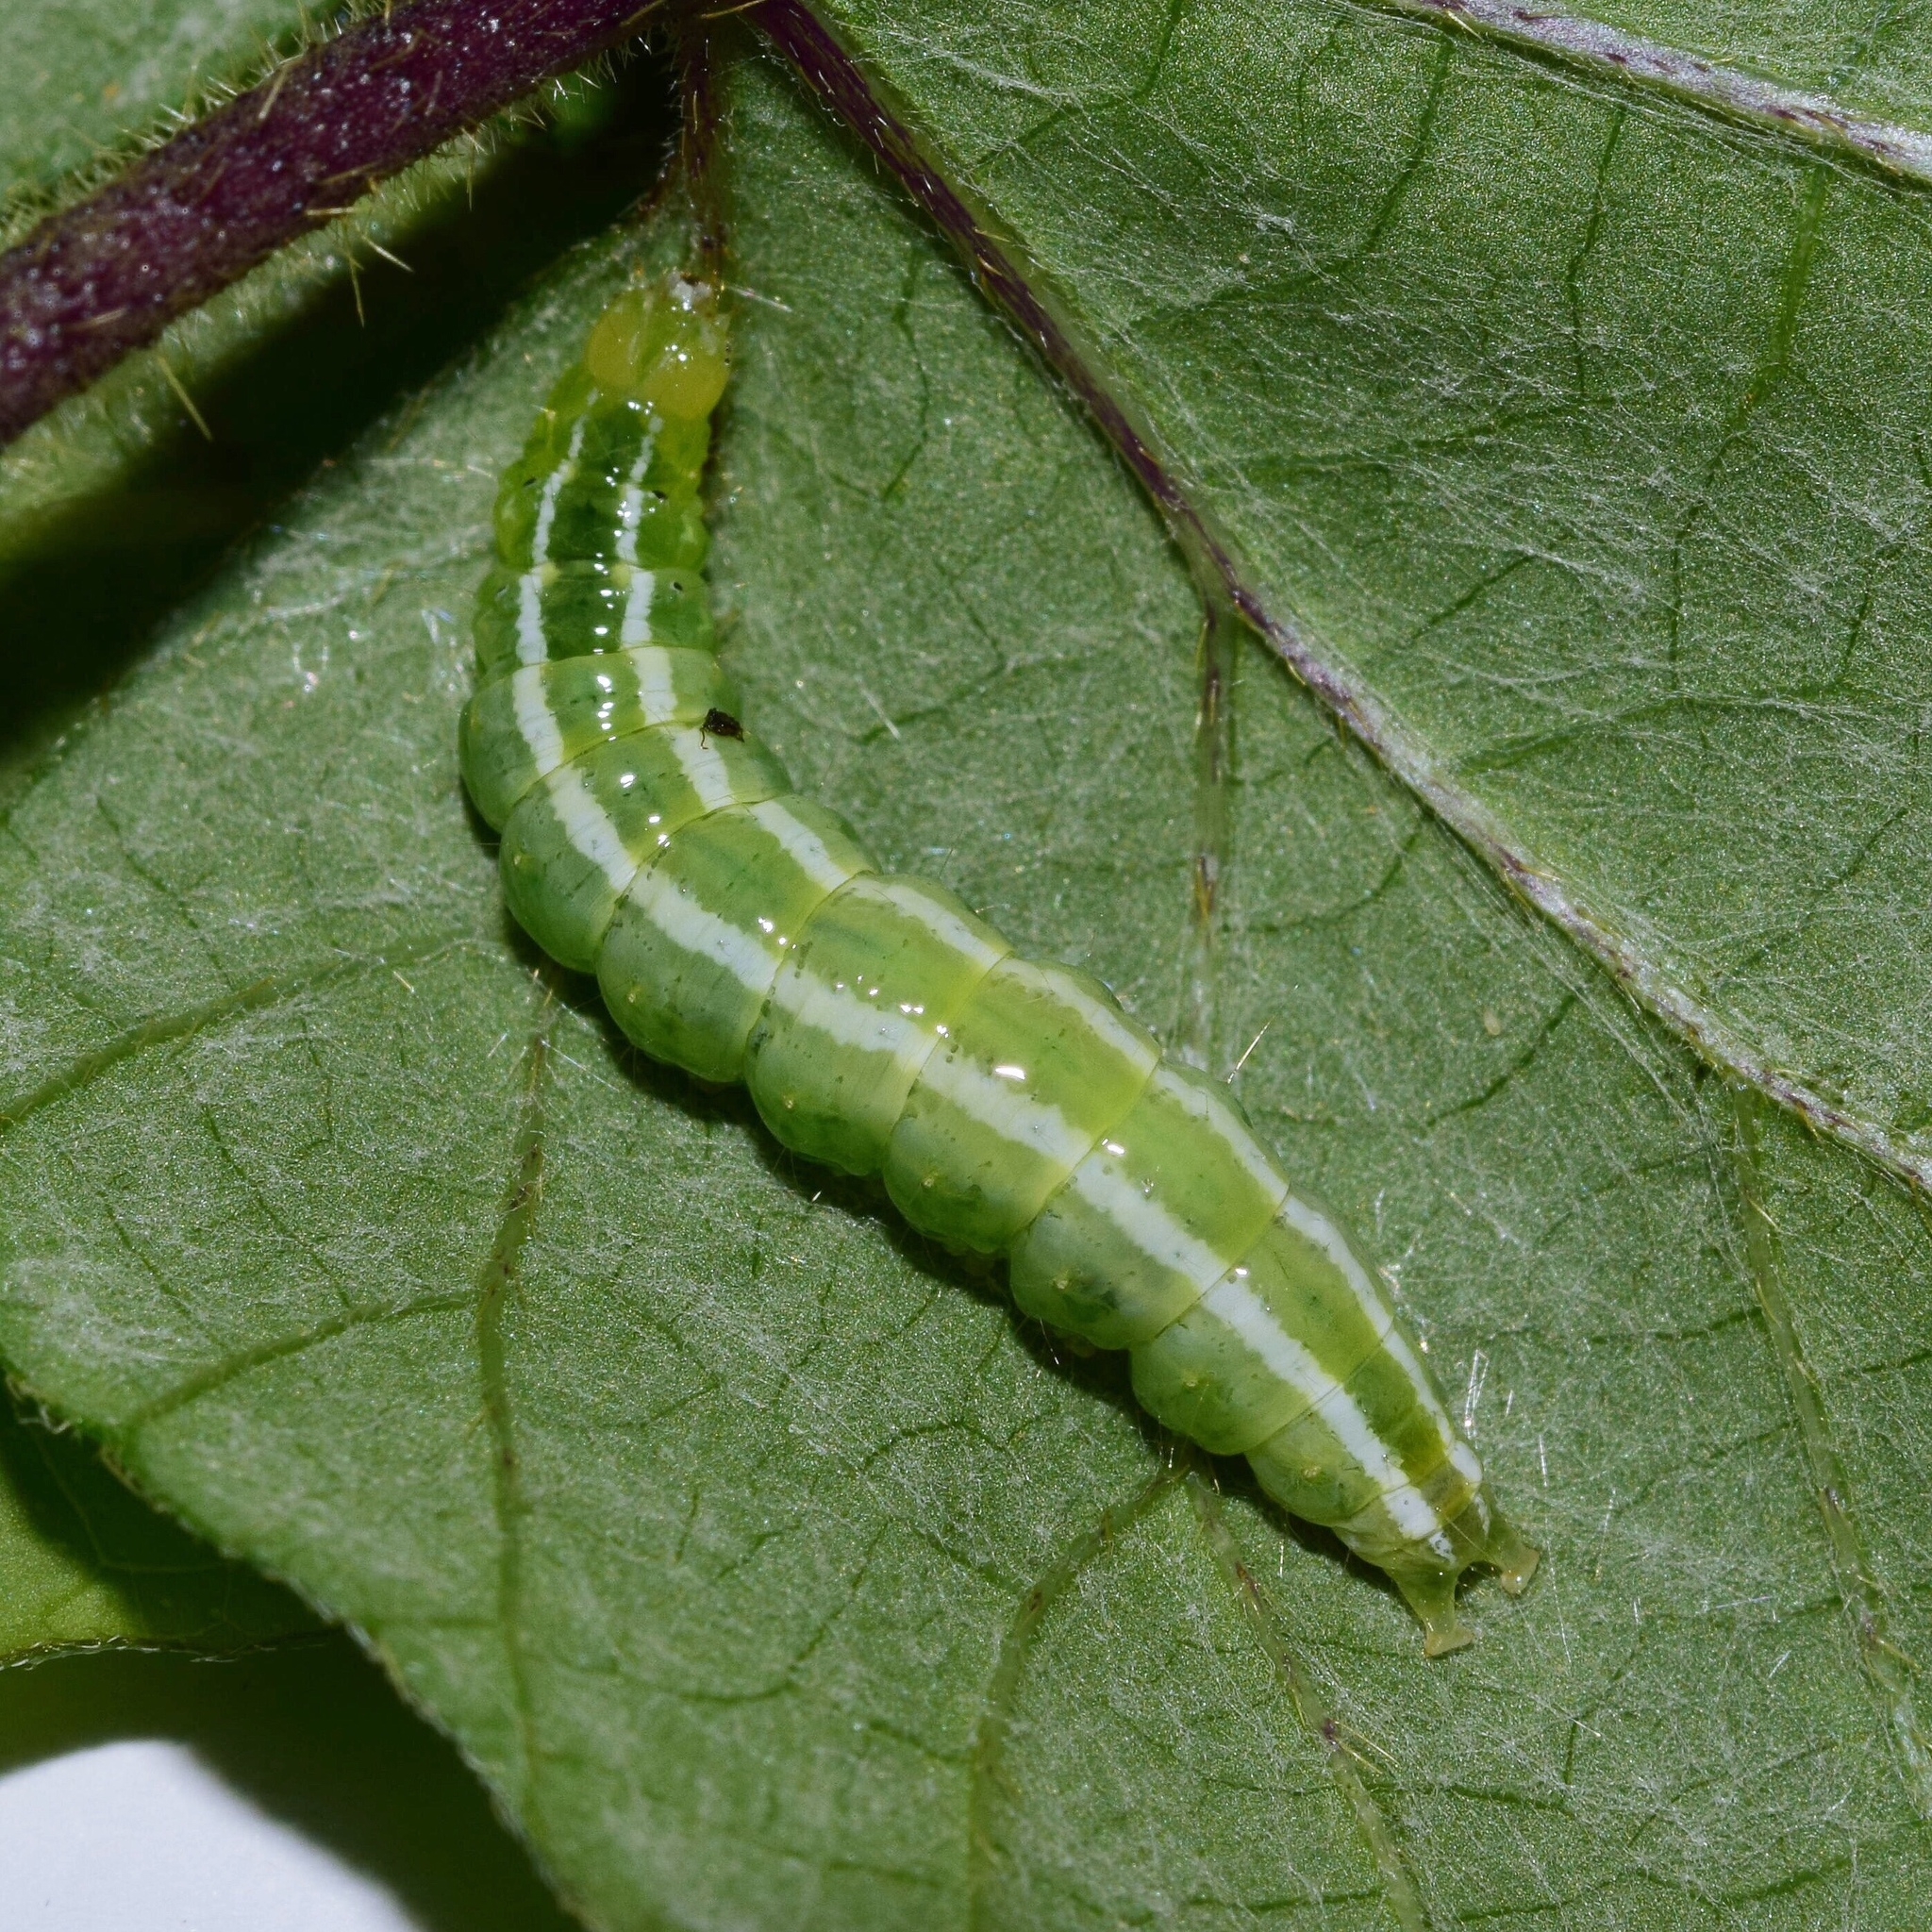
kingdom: Animalia
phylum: Arthropoda
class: Insecta
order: Lepidoptera
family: Crambidae
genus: Diaphania
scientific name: Diaphania indica
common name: Cucumber moth
